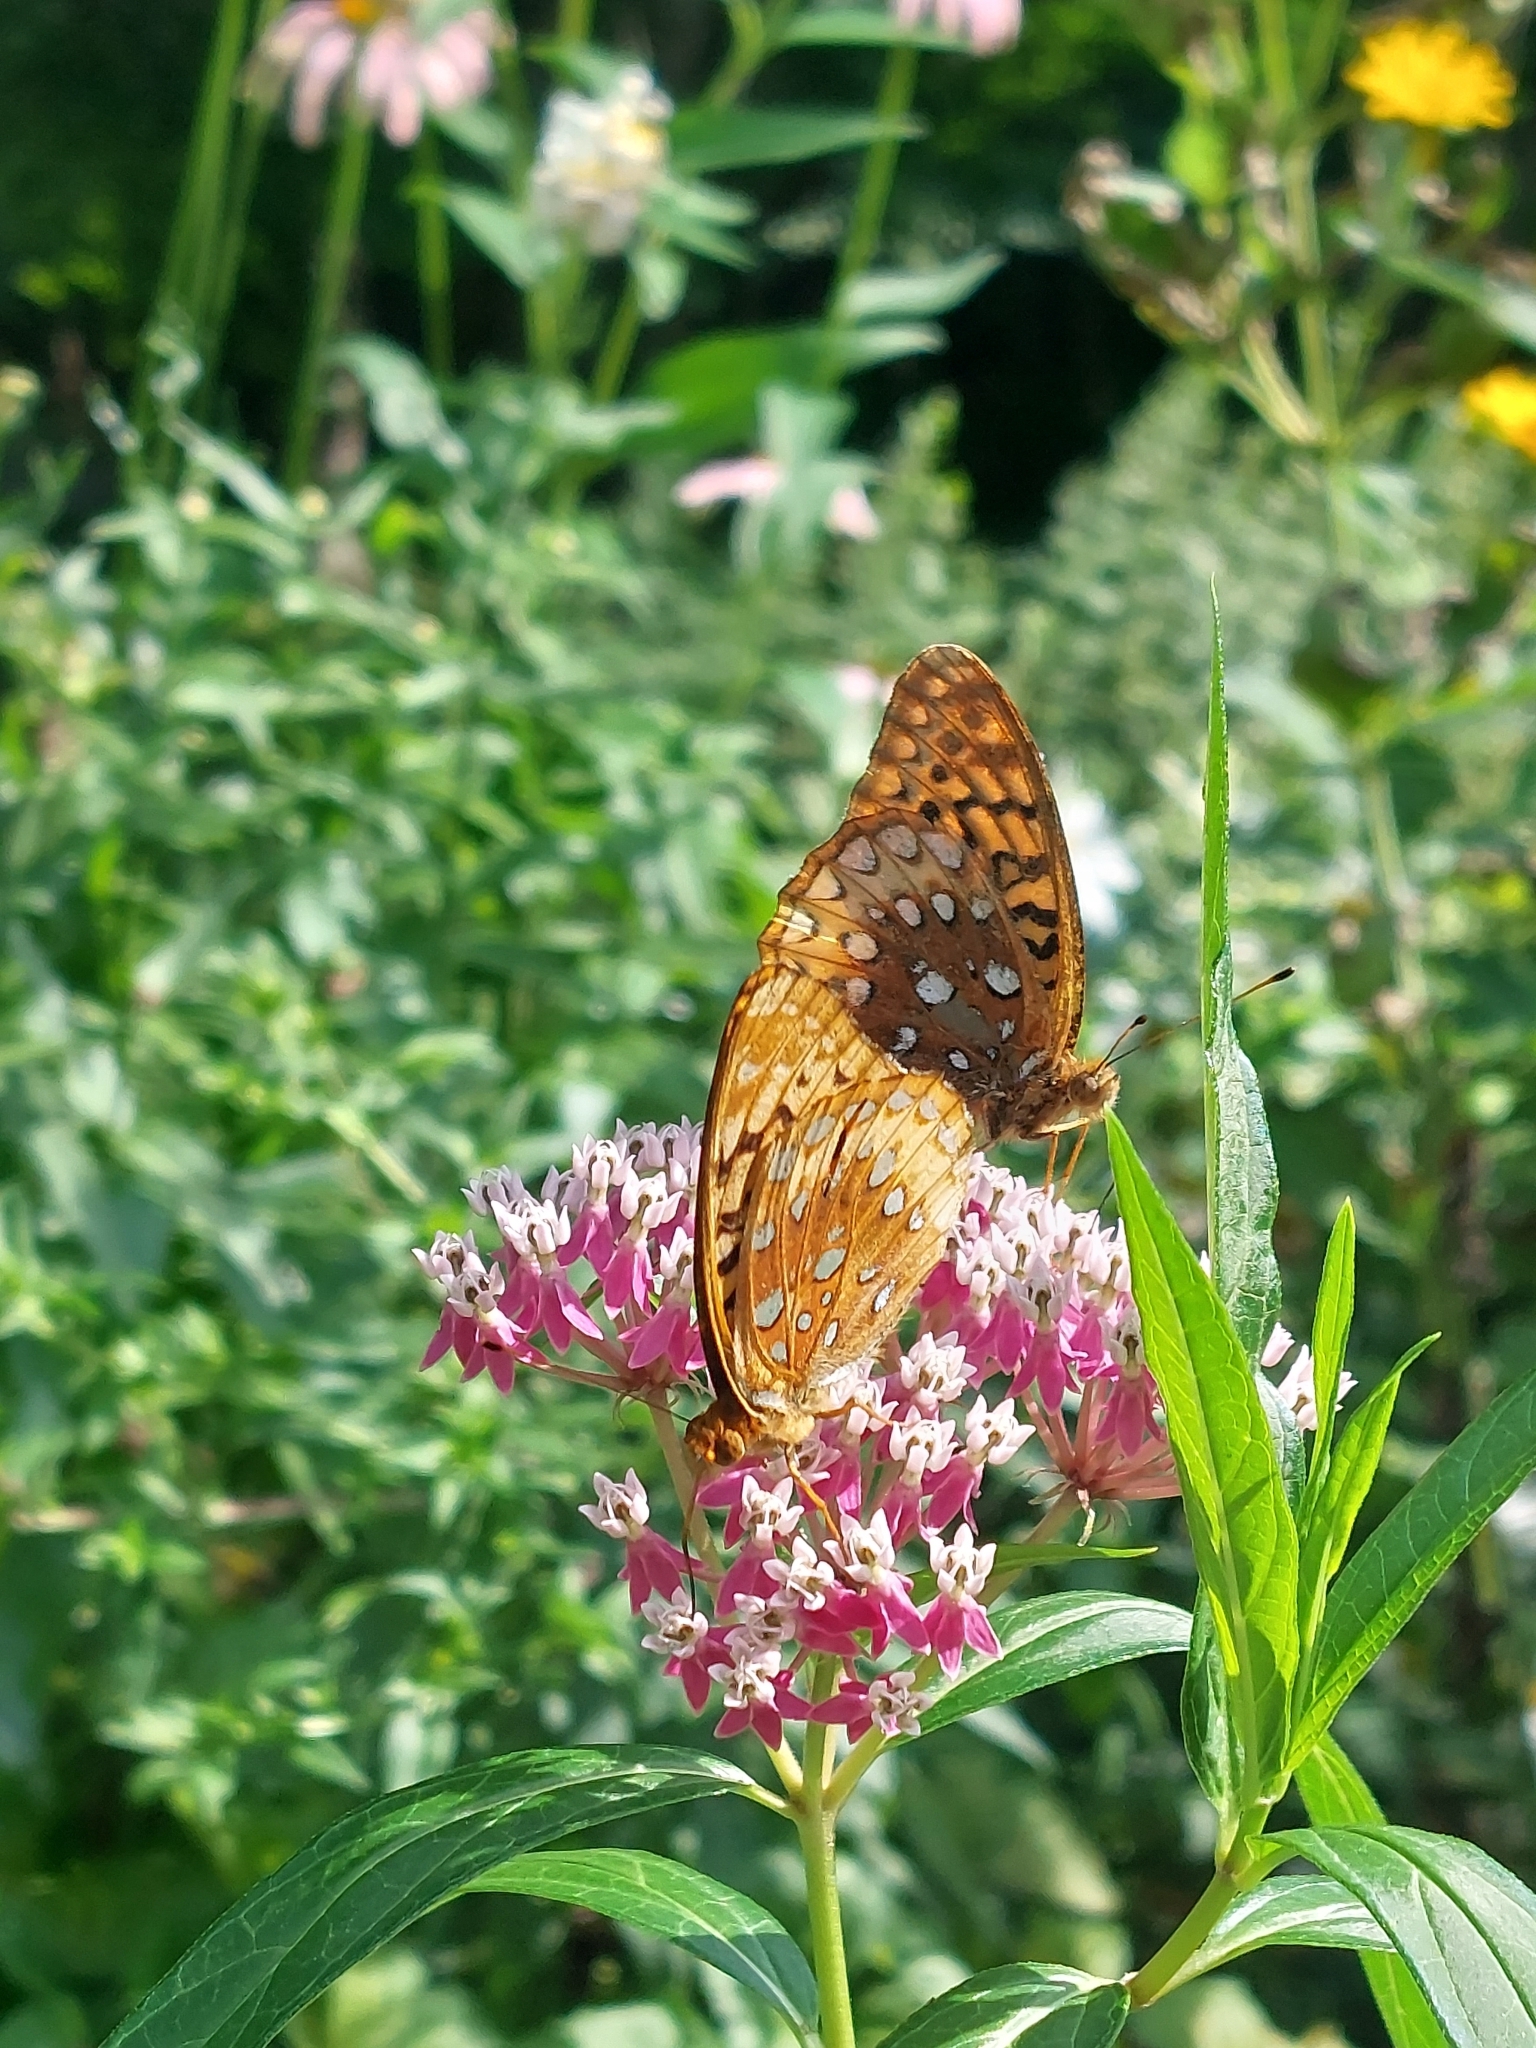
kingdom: Animalia
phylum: Arthropoda
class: Insecta
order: Lepidoptera
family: Nymphalidae
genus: Speyeria
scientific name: Speyeria cybele
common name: Great spangled fritillary
